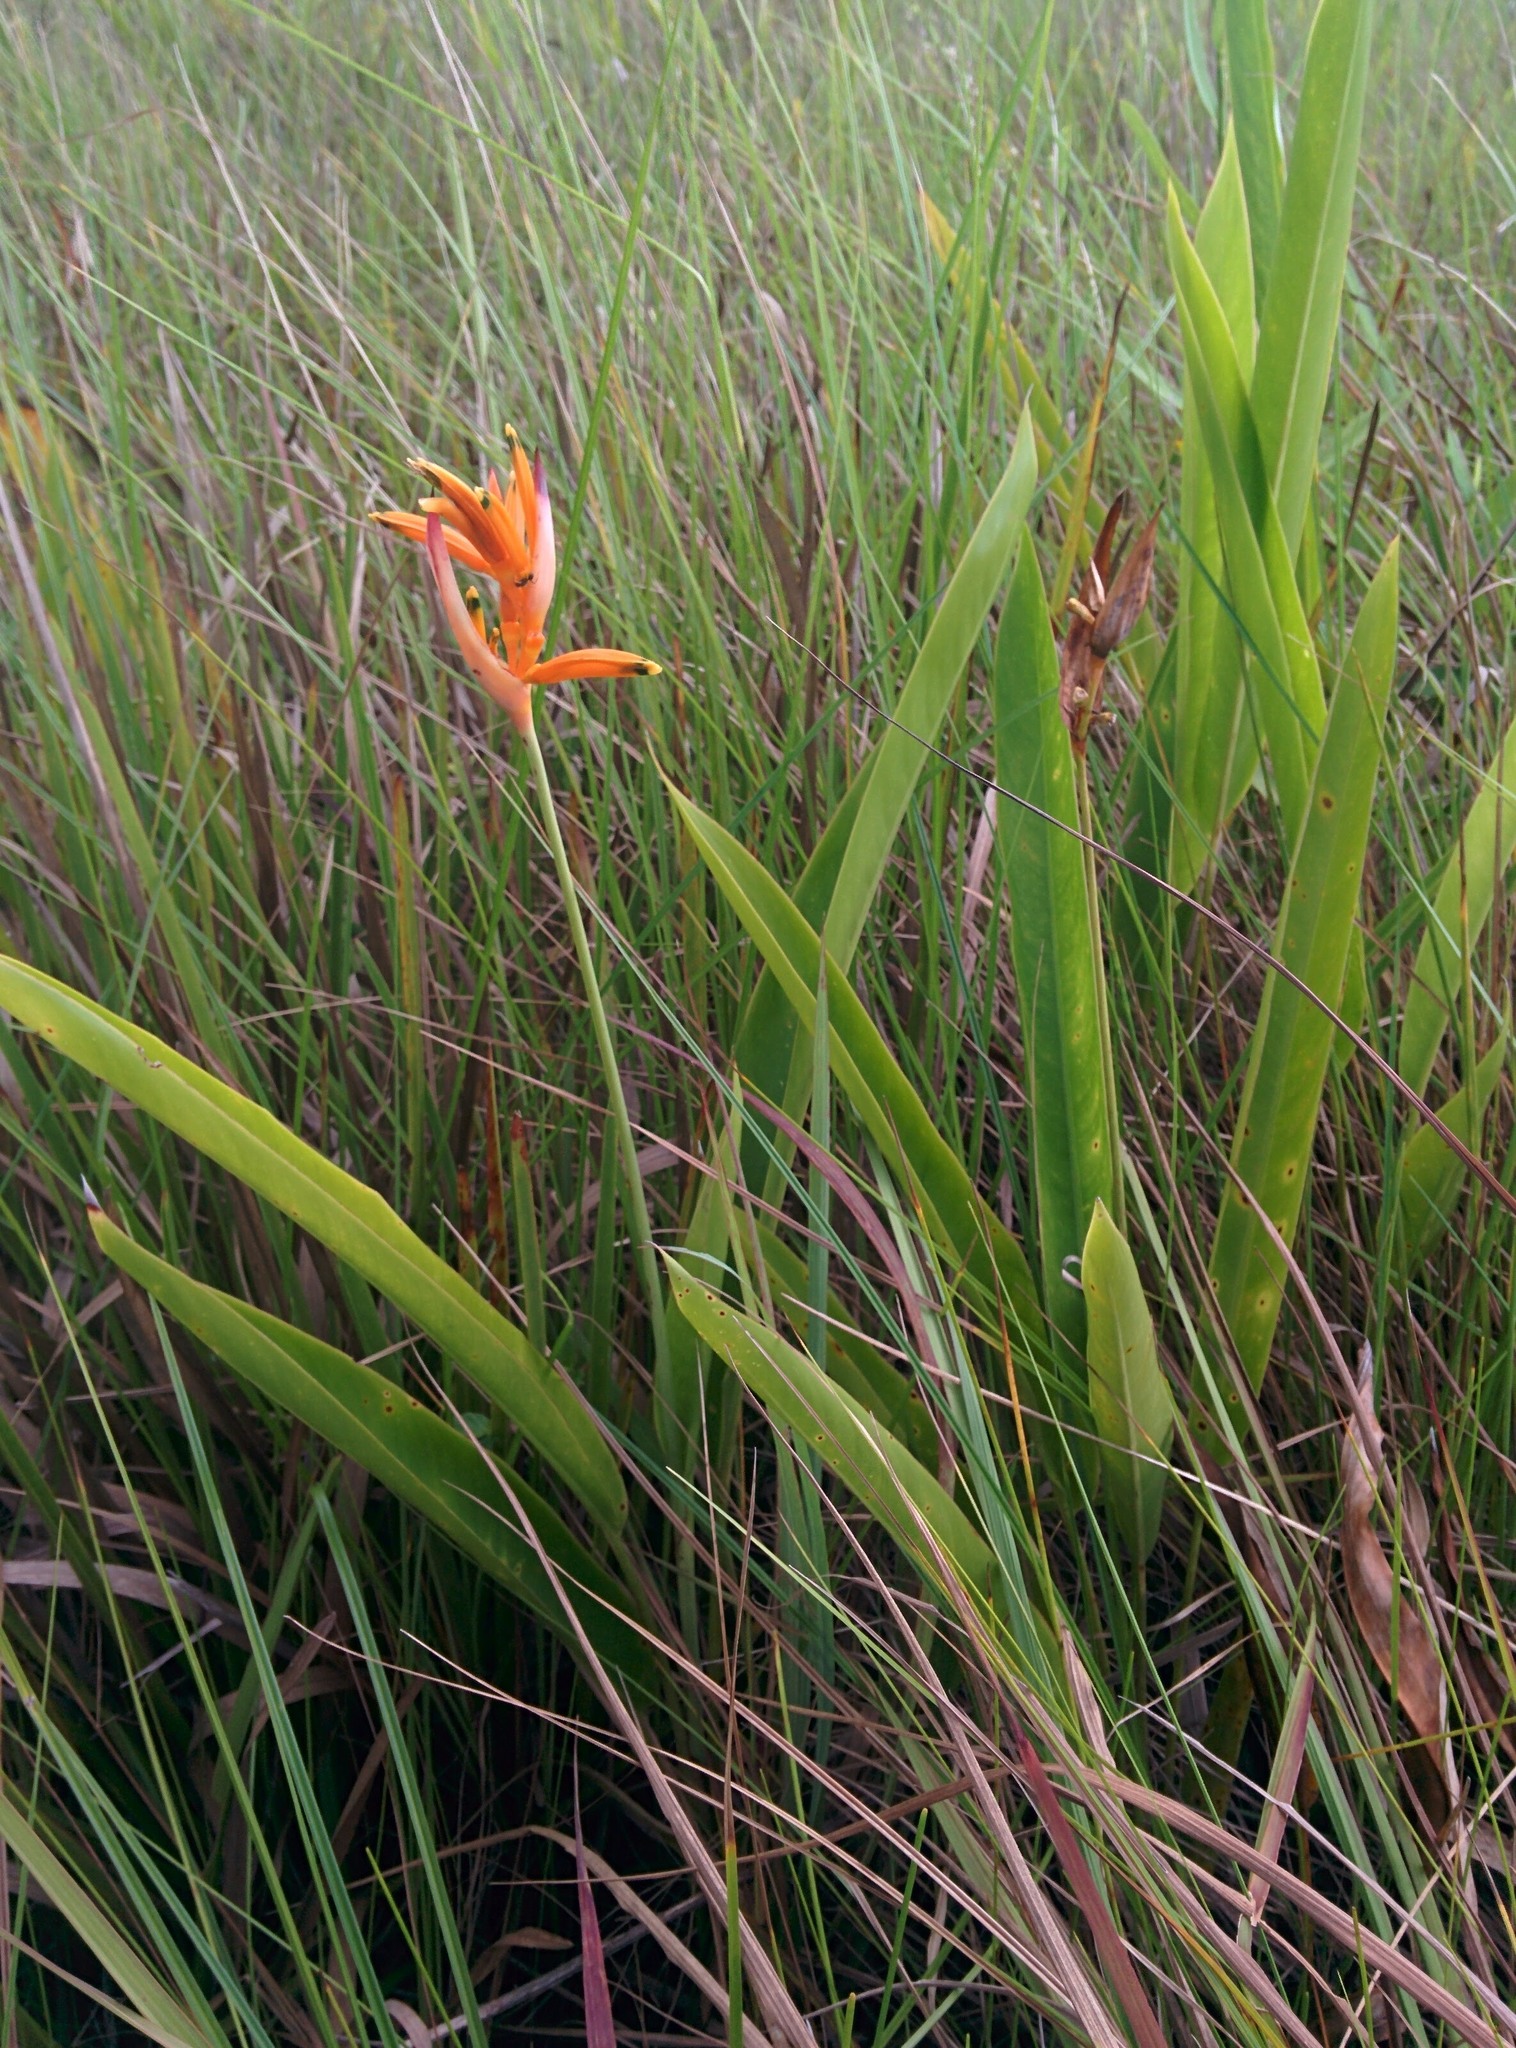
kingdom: Plantae
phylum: Tracheophyta
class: Liliopsida
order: Zingiberales
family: Heliconiaceae
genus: Heliconia
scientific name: Heliconia psittacorum
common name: Parrot's-flower
